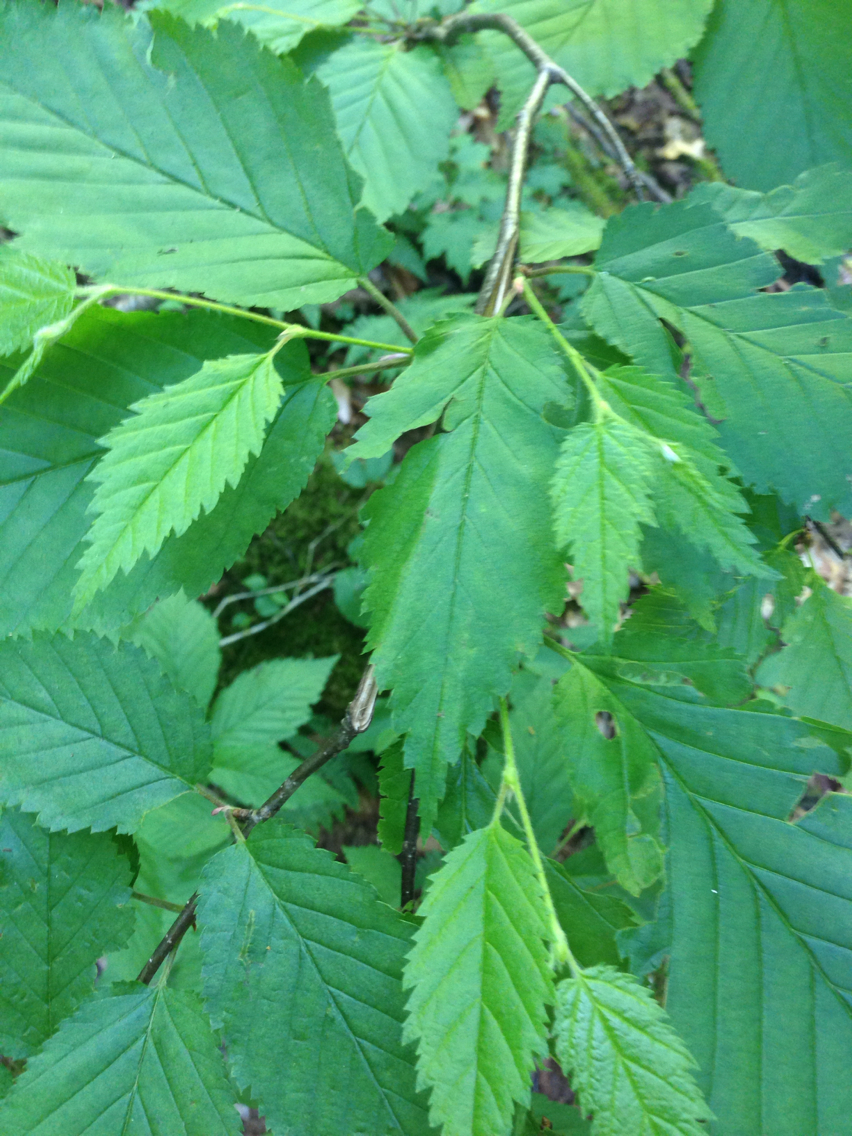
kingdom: Plantae
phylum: Tracheophyta
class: Magnoliopsida
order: Fagales
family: Betulaceae
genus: Betula
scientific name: Betula alleghaniensis
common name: Yellow birch
